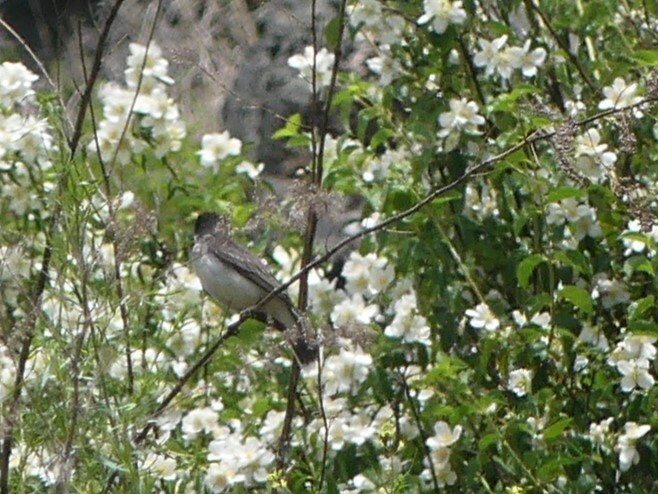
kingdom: Animalia
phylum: Chordata
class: Aves
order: Passeriformes
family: Tyrannidae
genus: Tyrannus
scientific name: Tyrannus tyrannus
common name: Eastern kingbird
